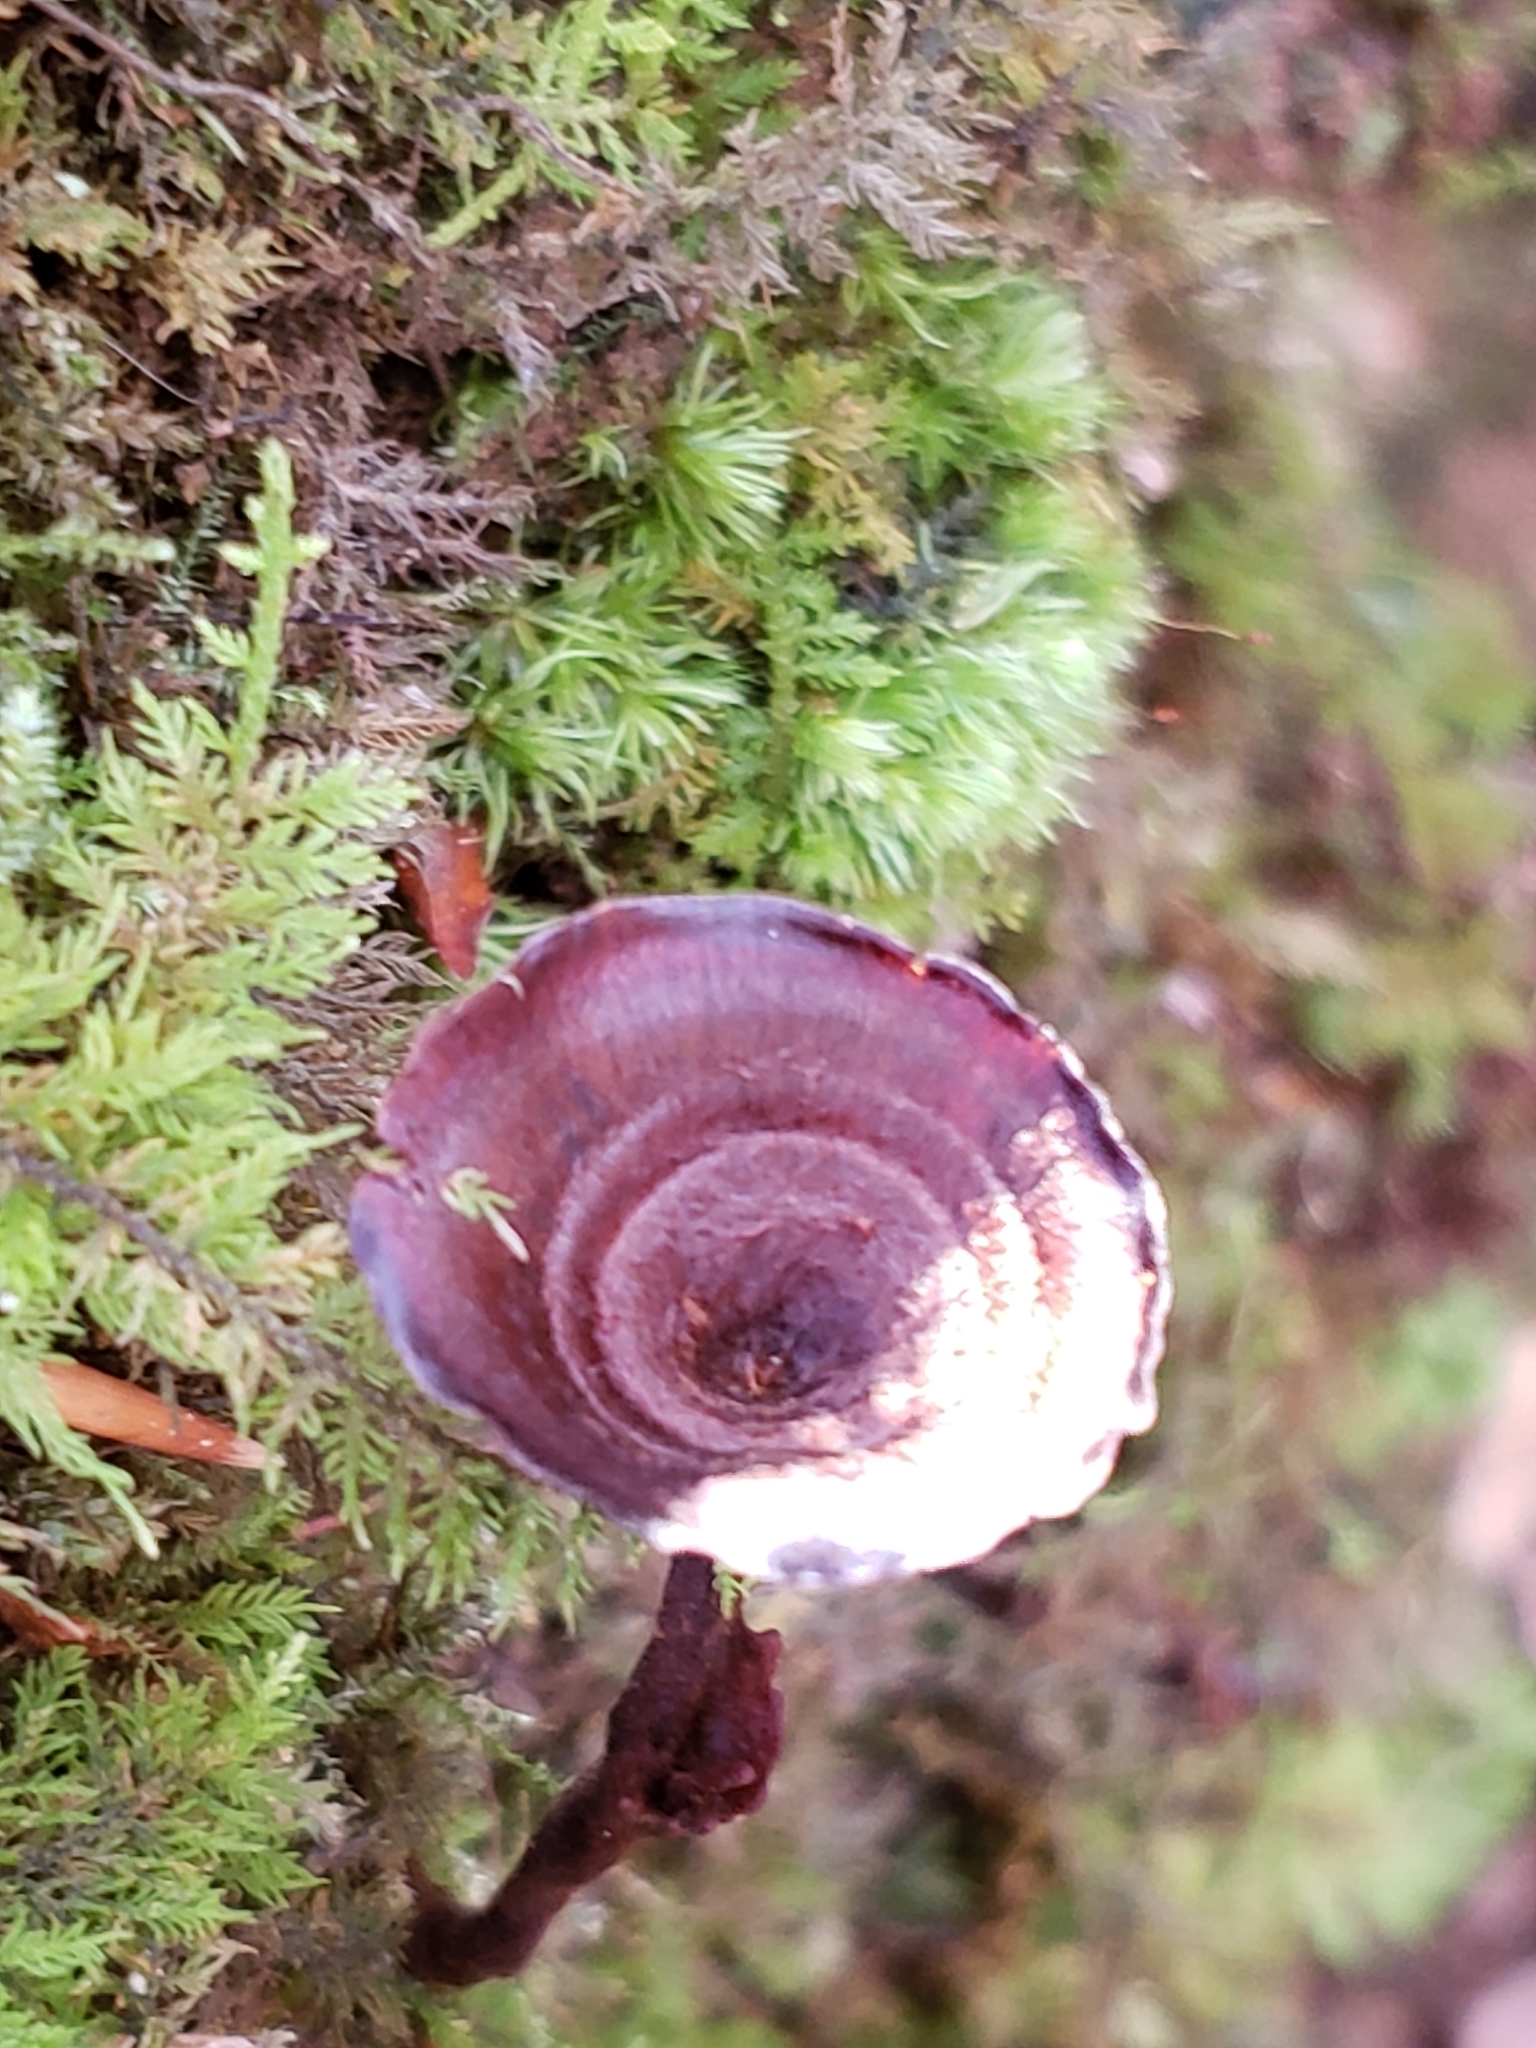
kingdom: Fungi
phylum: Basidiomycota
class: Agaricomycetes
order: Hymenochaetales
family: Hymenochaetaceae
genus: Coltricia
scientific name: Coltricia cinnamomea
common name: Shiny cinnamon polypore
